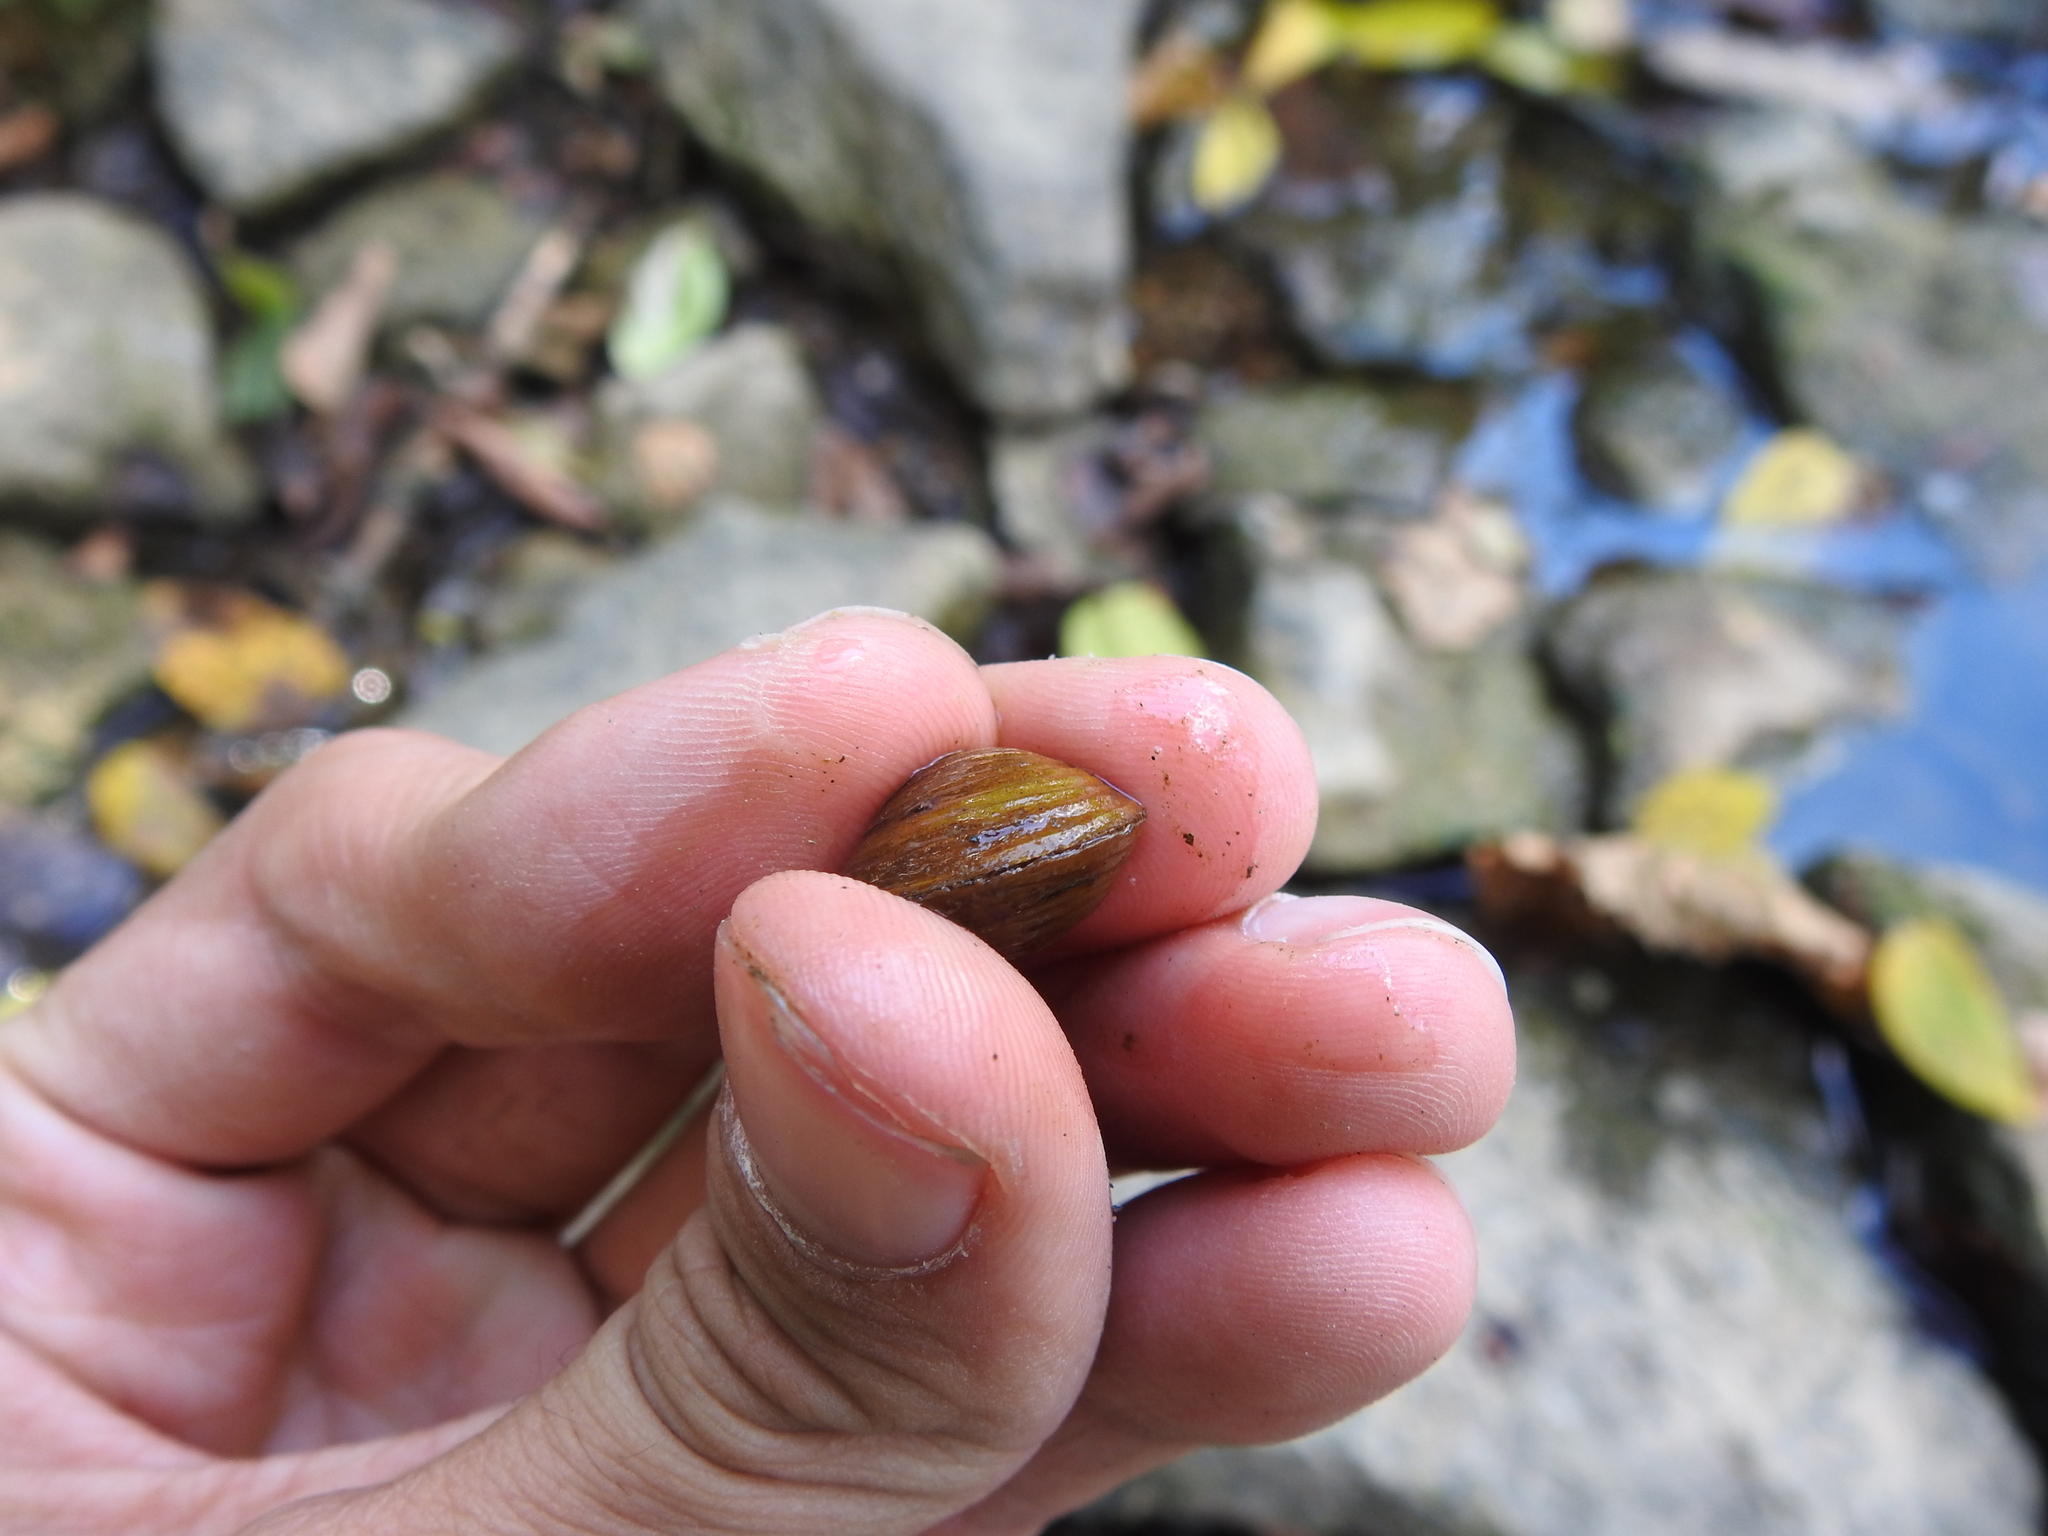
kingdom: Animalia
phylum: Mollusca
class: Bivalvia
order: Venerida
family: Cyrenidae
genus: Corbicula
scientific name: Corbicula fluminea
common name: Asian clam
